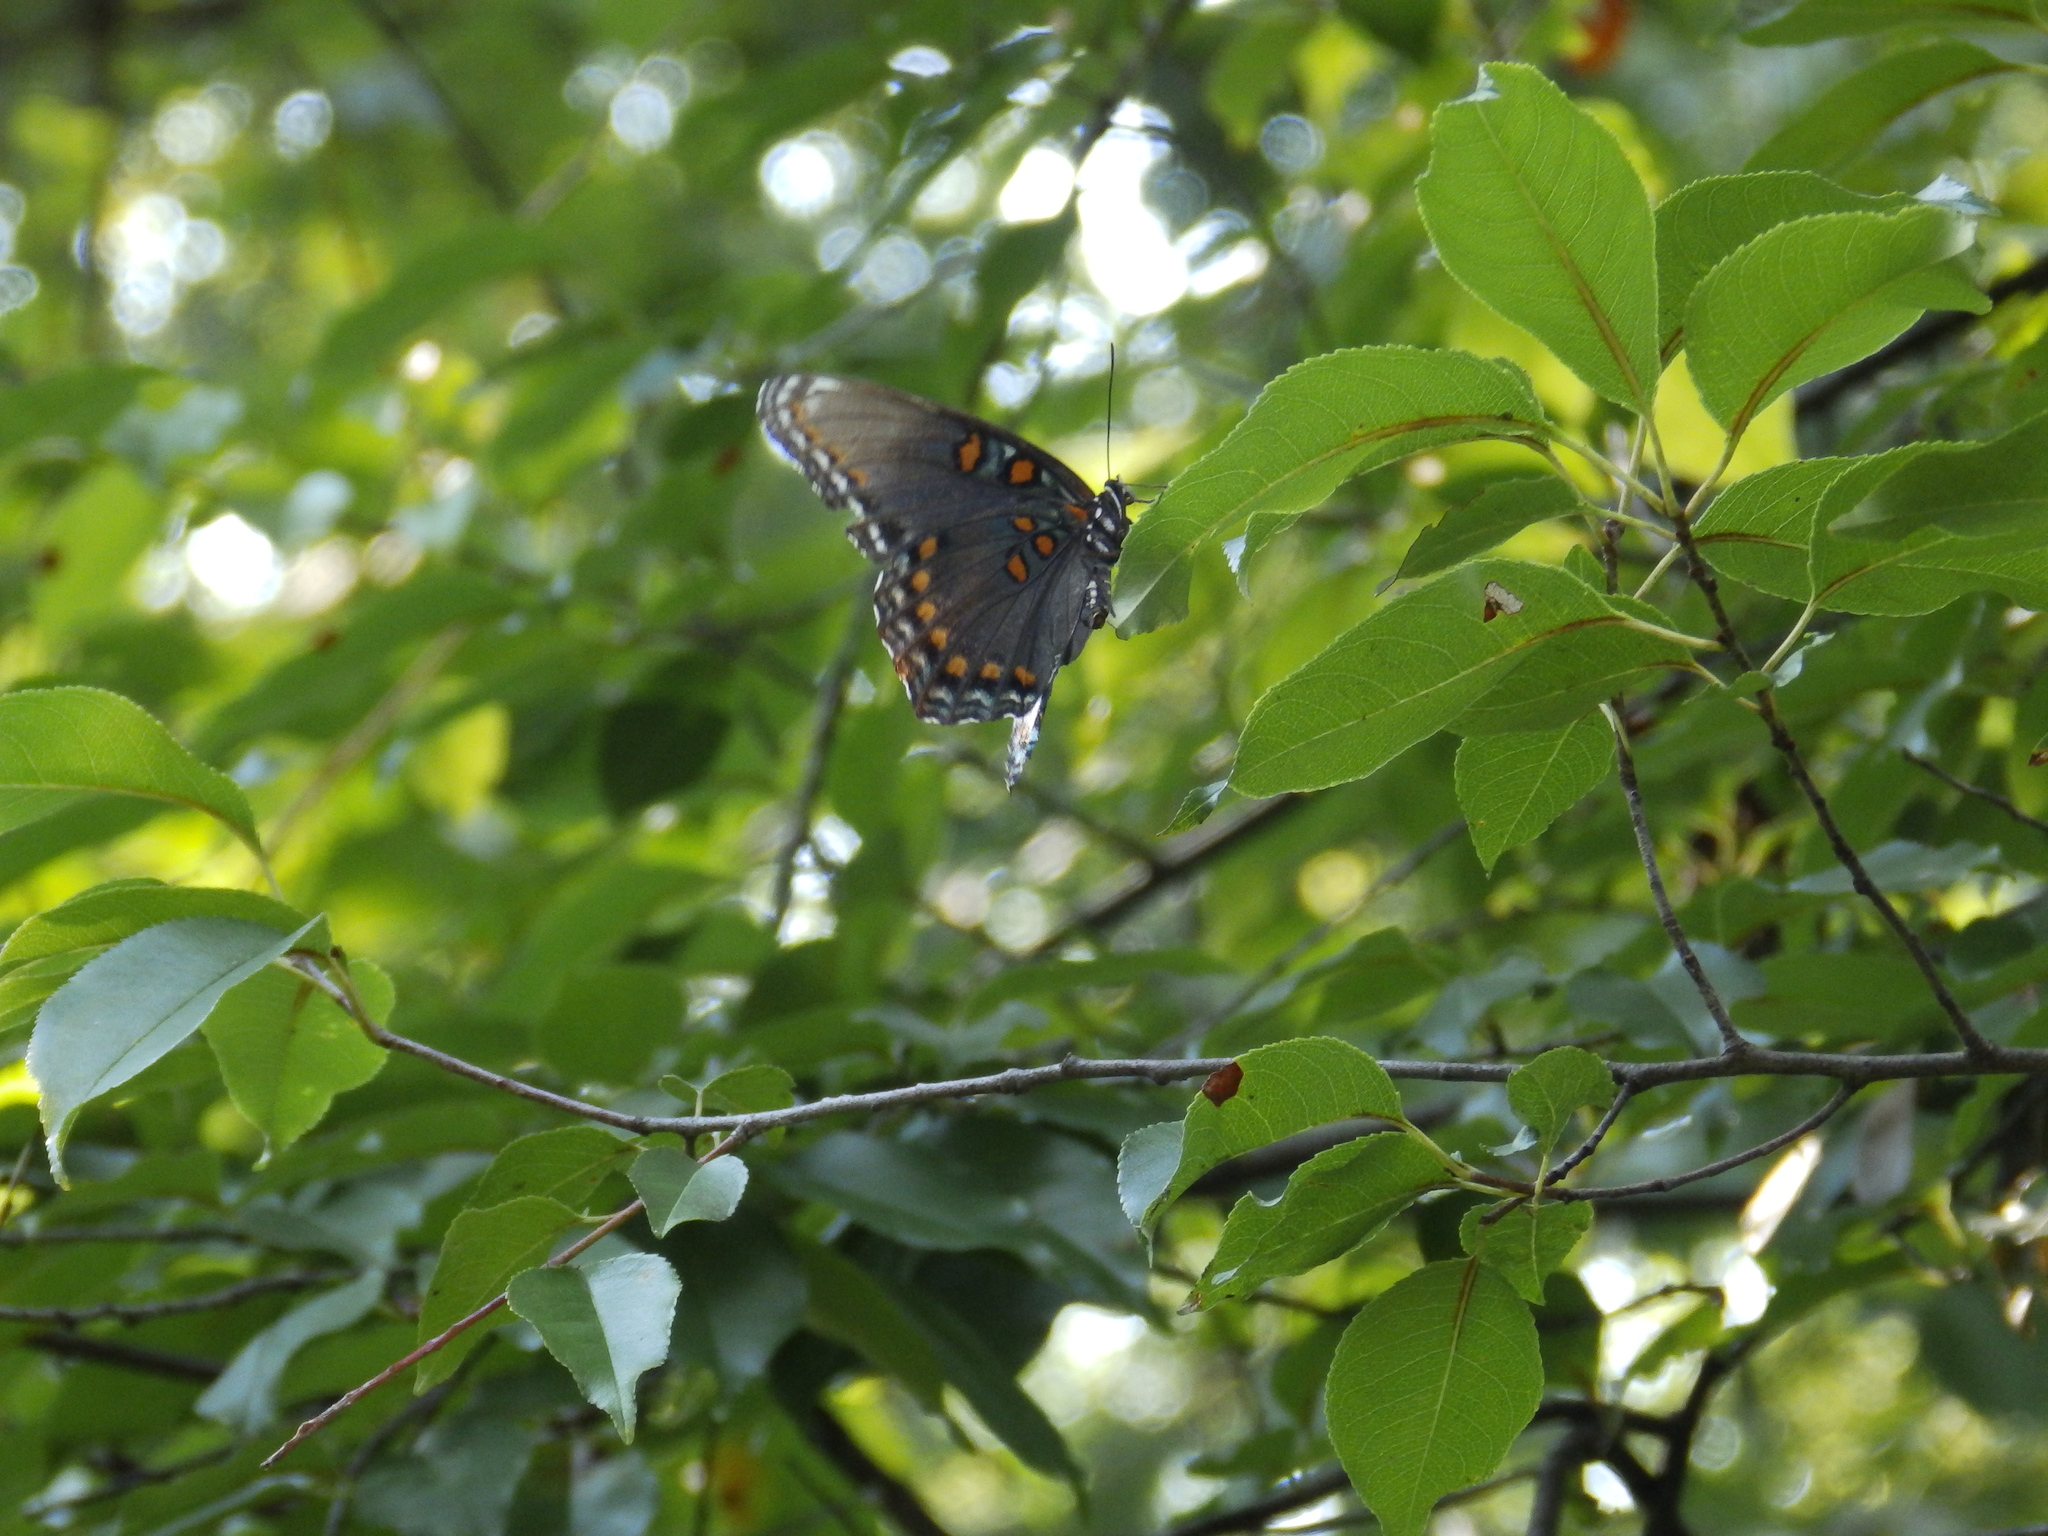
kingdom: Animalia
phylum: Arthropoda
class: Insecta
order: Lepidoptera
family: Nymphalidae
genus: Limenitis
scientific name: Limenitis astyanax
